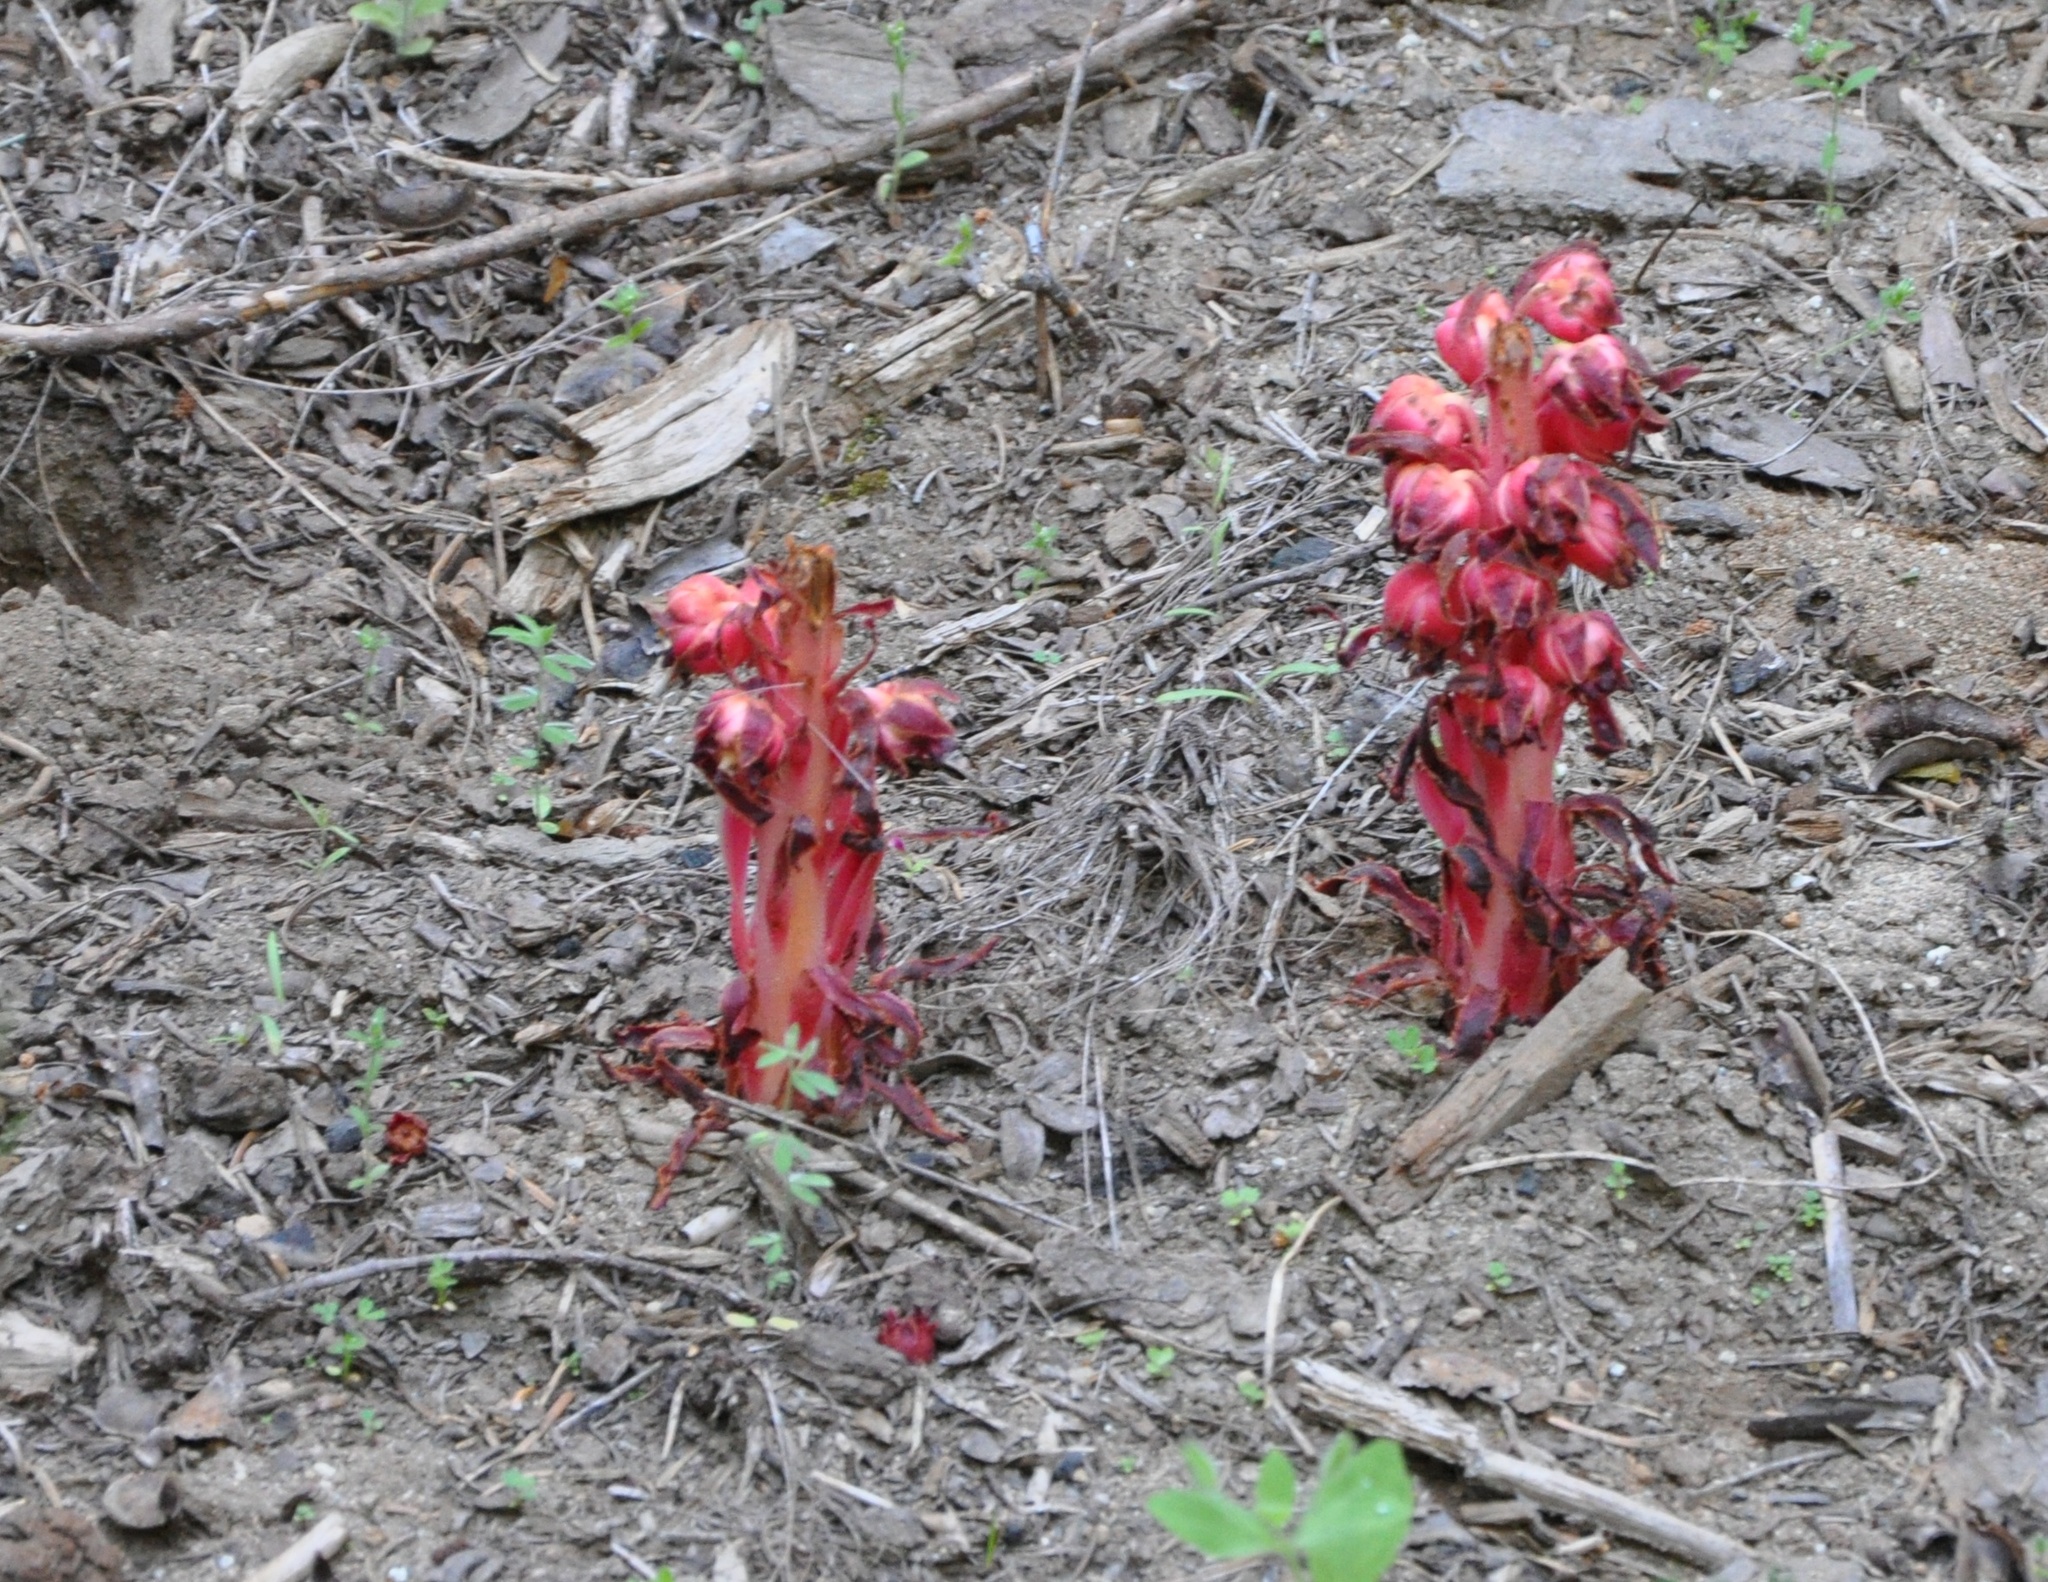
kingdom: Plantae
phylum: Tracheophyta
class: Magnoliopsida
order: Ericales
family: Ericaceae
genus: Sarcodes
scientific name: Sarcodes sanguinea
